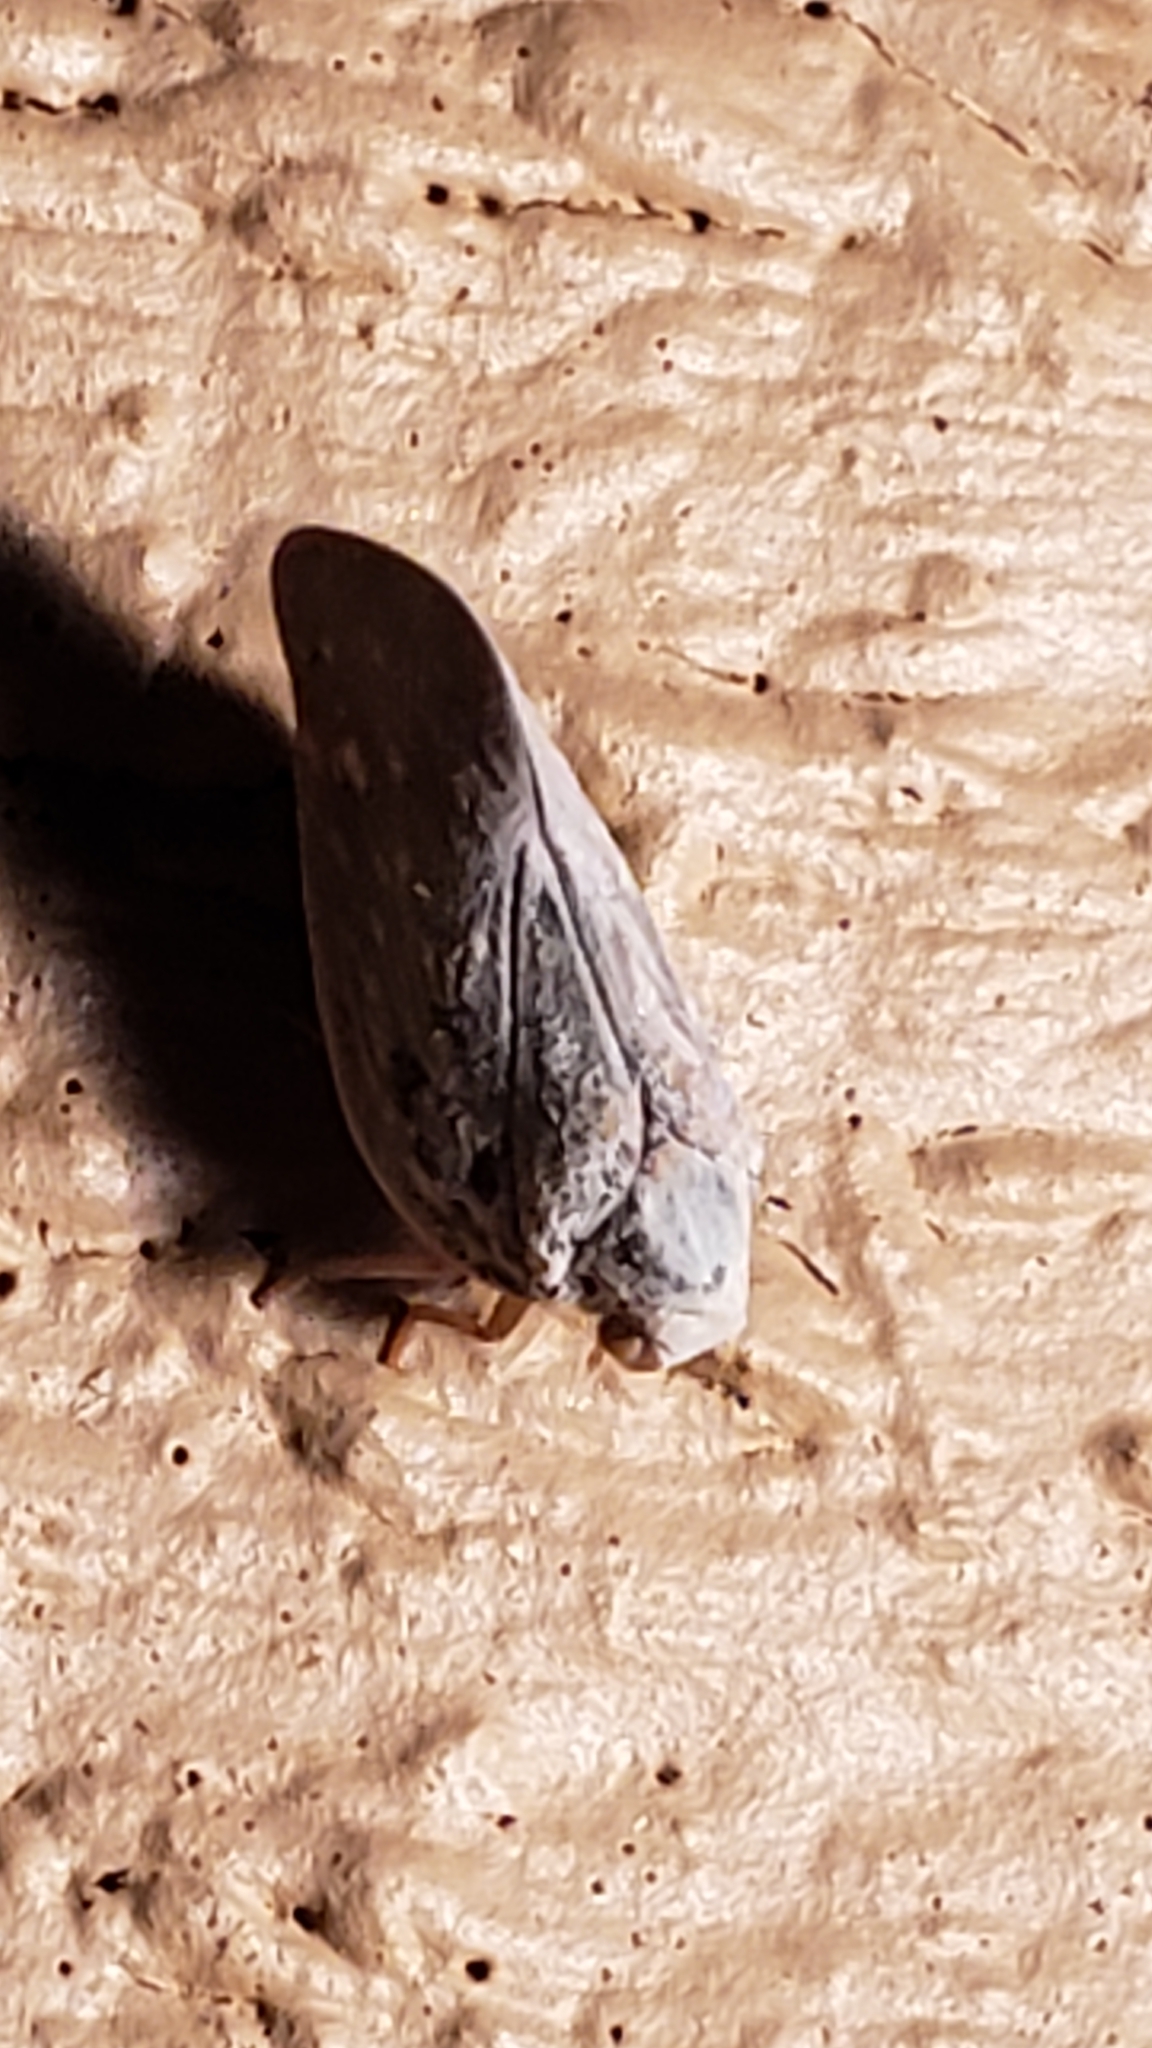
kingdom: Animalia
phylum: Arthropoda
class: Insecta
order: Hemiptera
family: Flatidae
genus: Metcalfa
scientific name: Metcalfa pruinosa
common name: Citrus flatid planthopper
